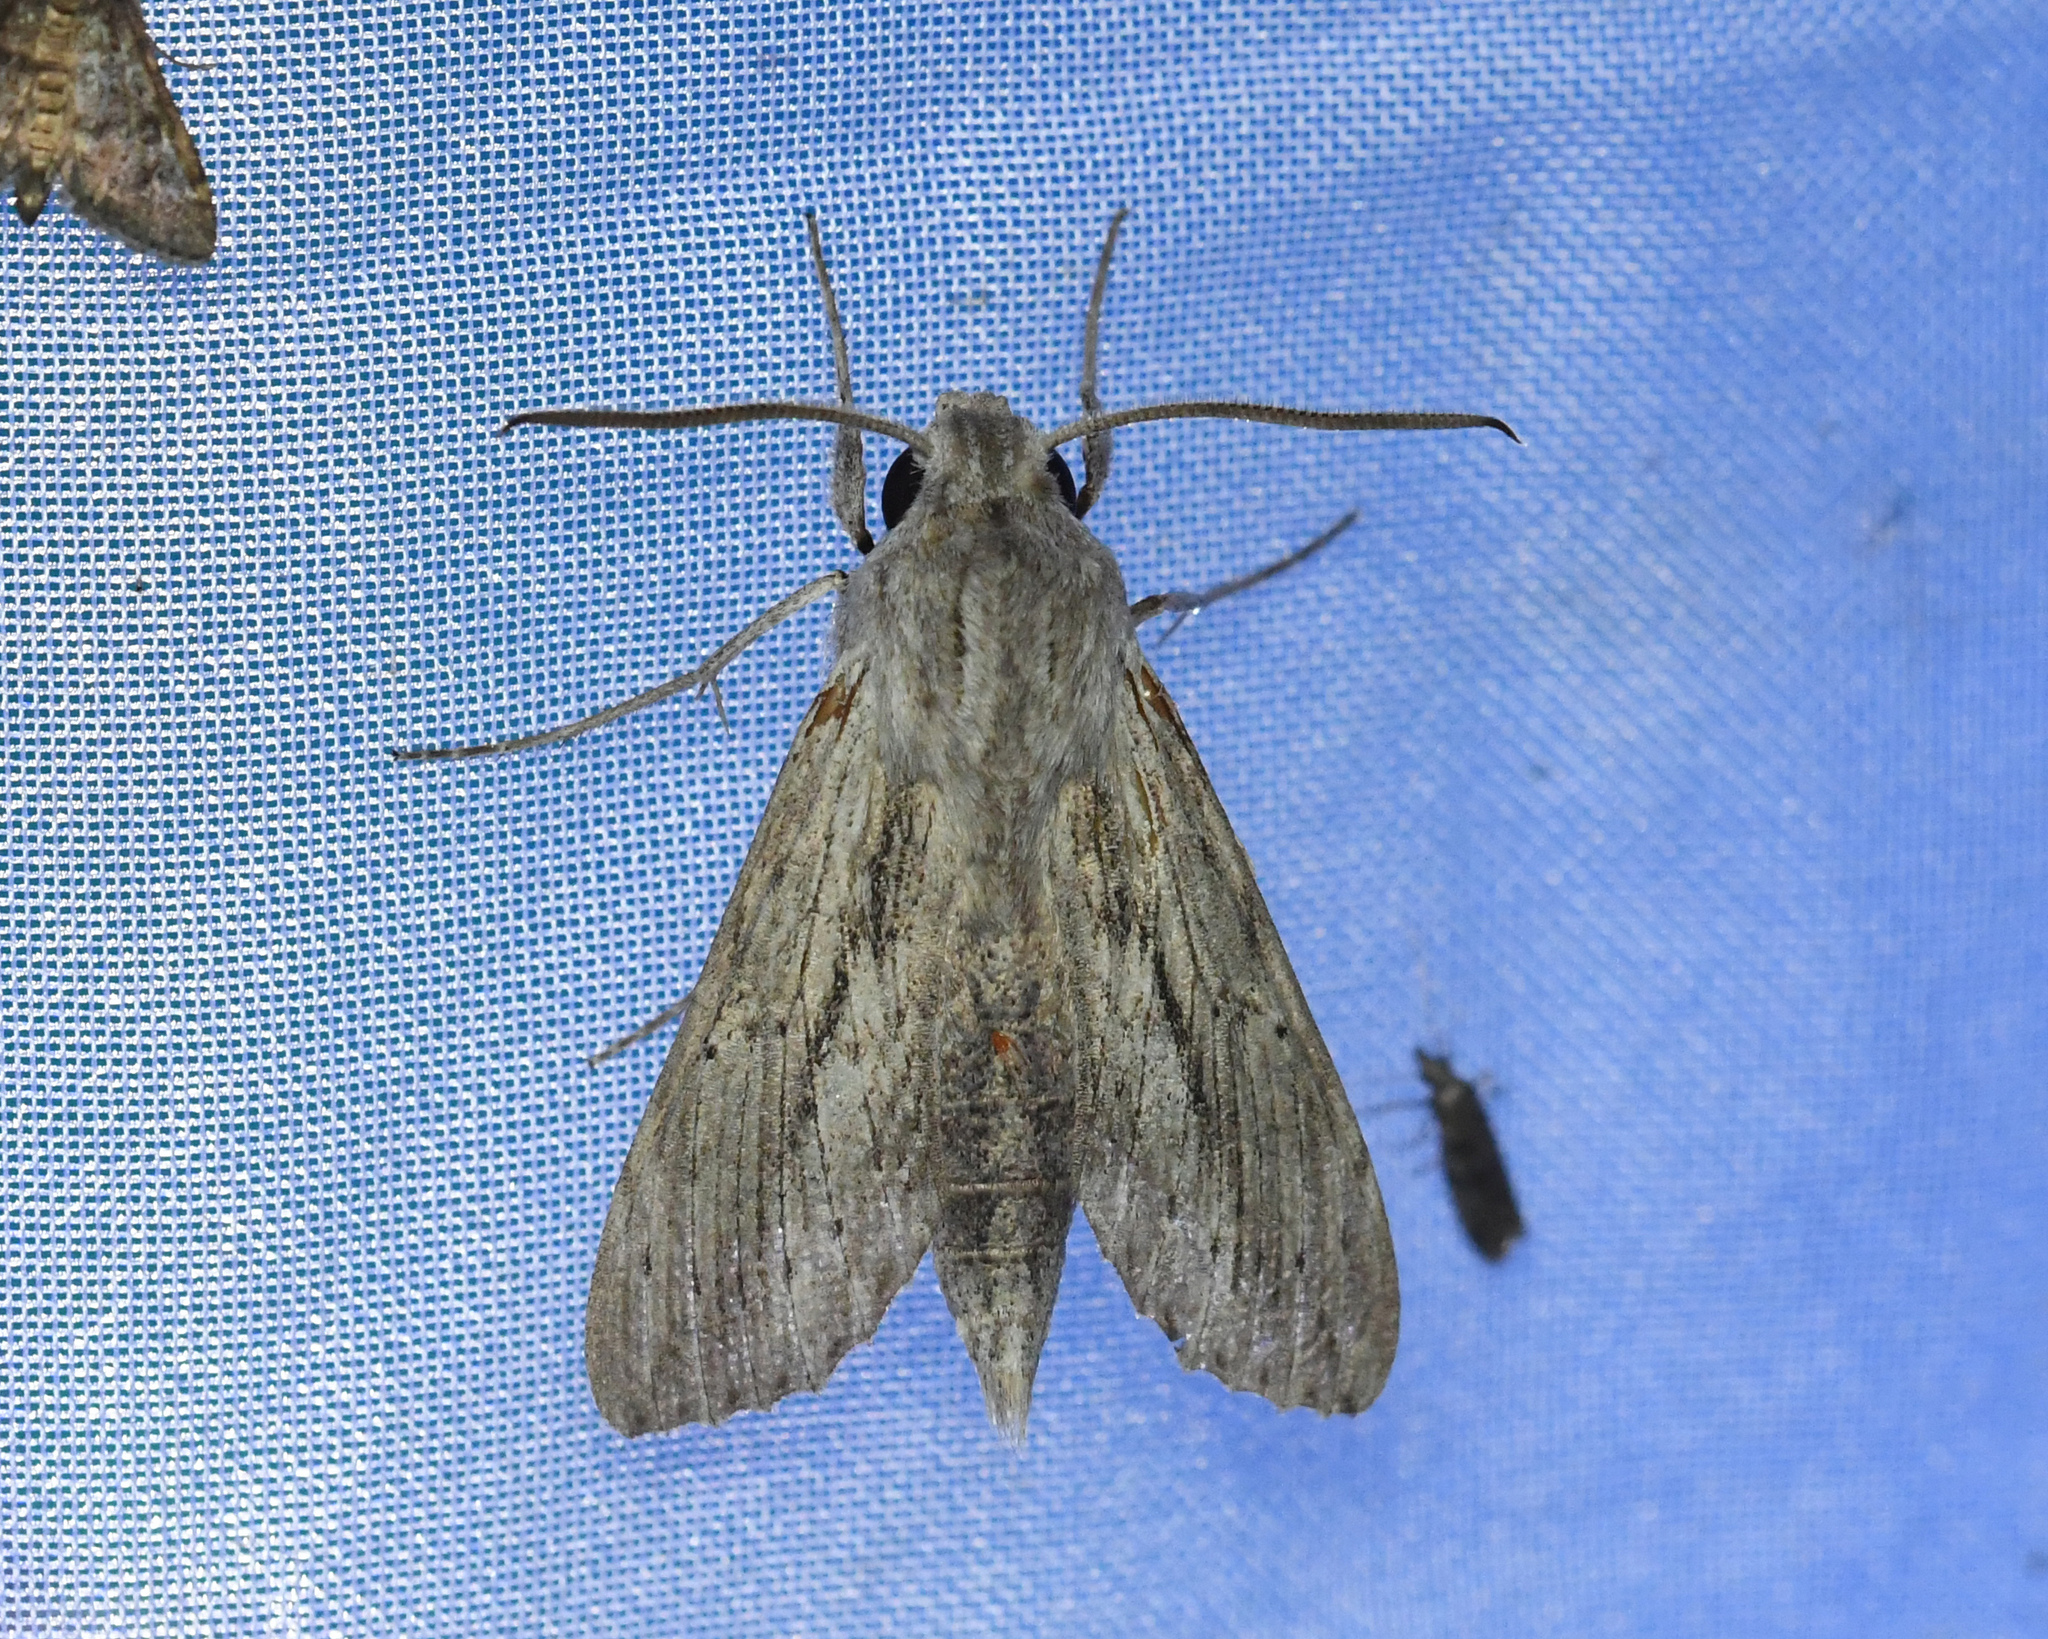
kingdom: Animalia
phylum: Arthropoda
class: Insecta
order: Lepidoptera
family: Sphingidae
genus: Erinnyis
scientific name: Erinnyis guttularis
